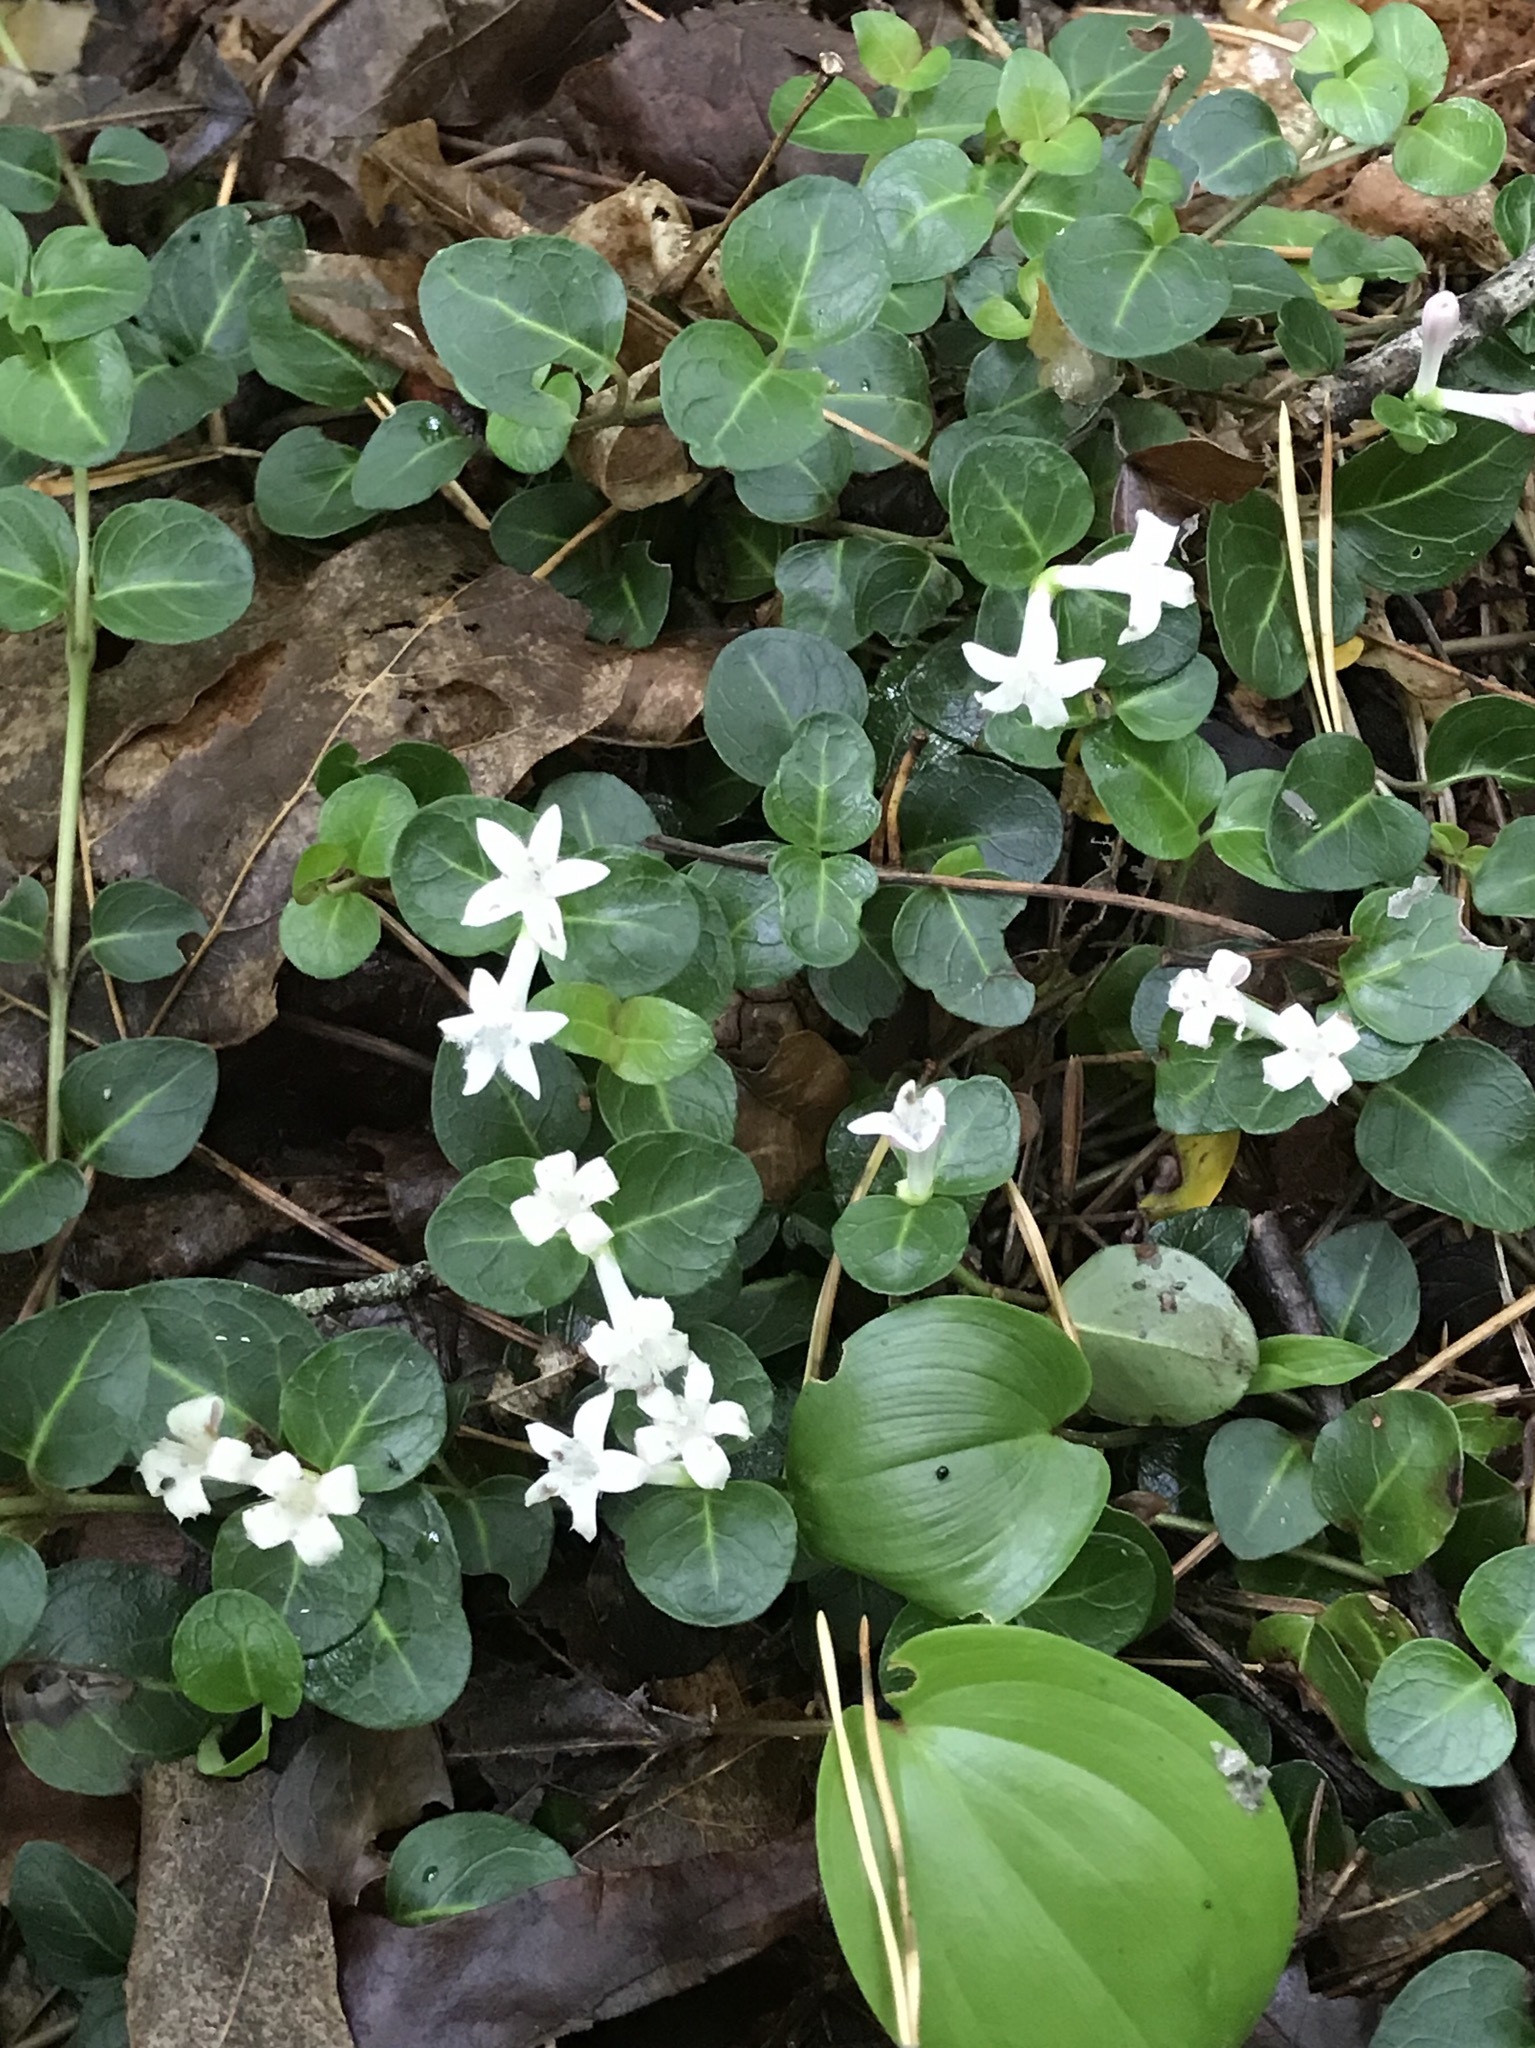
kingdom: Plantae
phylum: Tracheophyta
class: Magnoliopsida
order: Gentianales
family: Rubiaceae
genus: Mitchella
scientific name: Mitchella repens
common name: Partridge-berry
